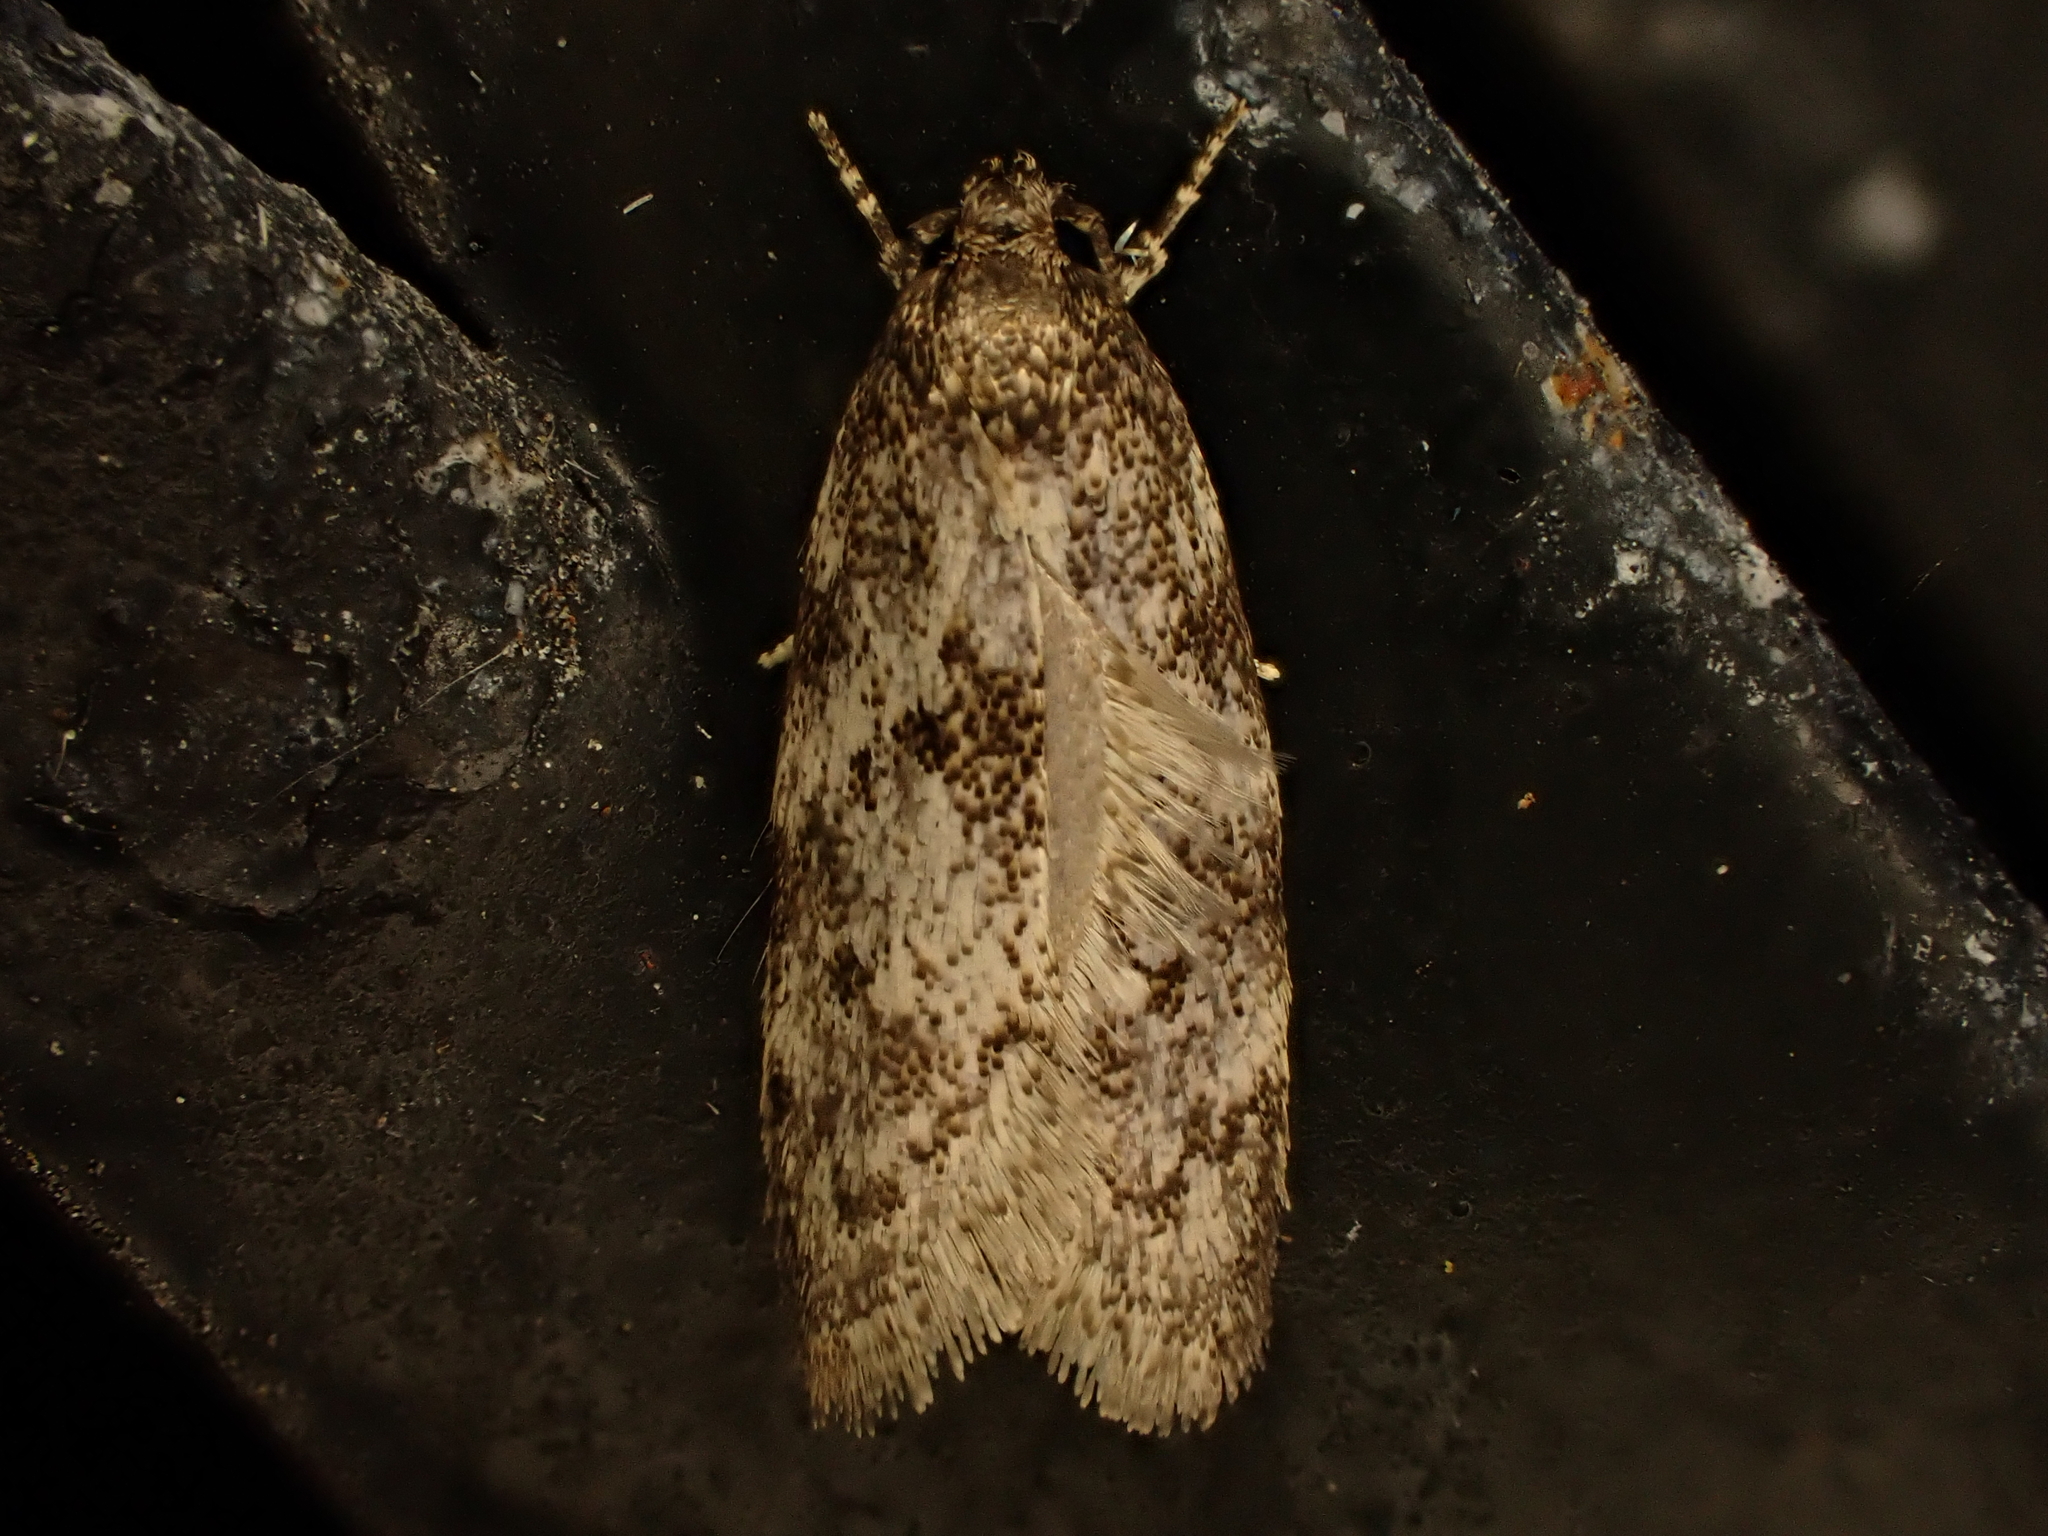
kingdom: Animalia
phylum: Arthropoda
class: Insecta
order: Lepidoptera
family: Oecophoridae
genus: Tingena
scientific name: Tingena clarkei
